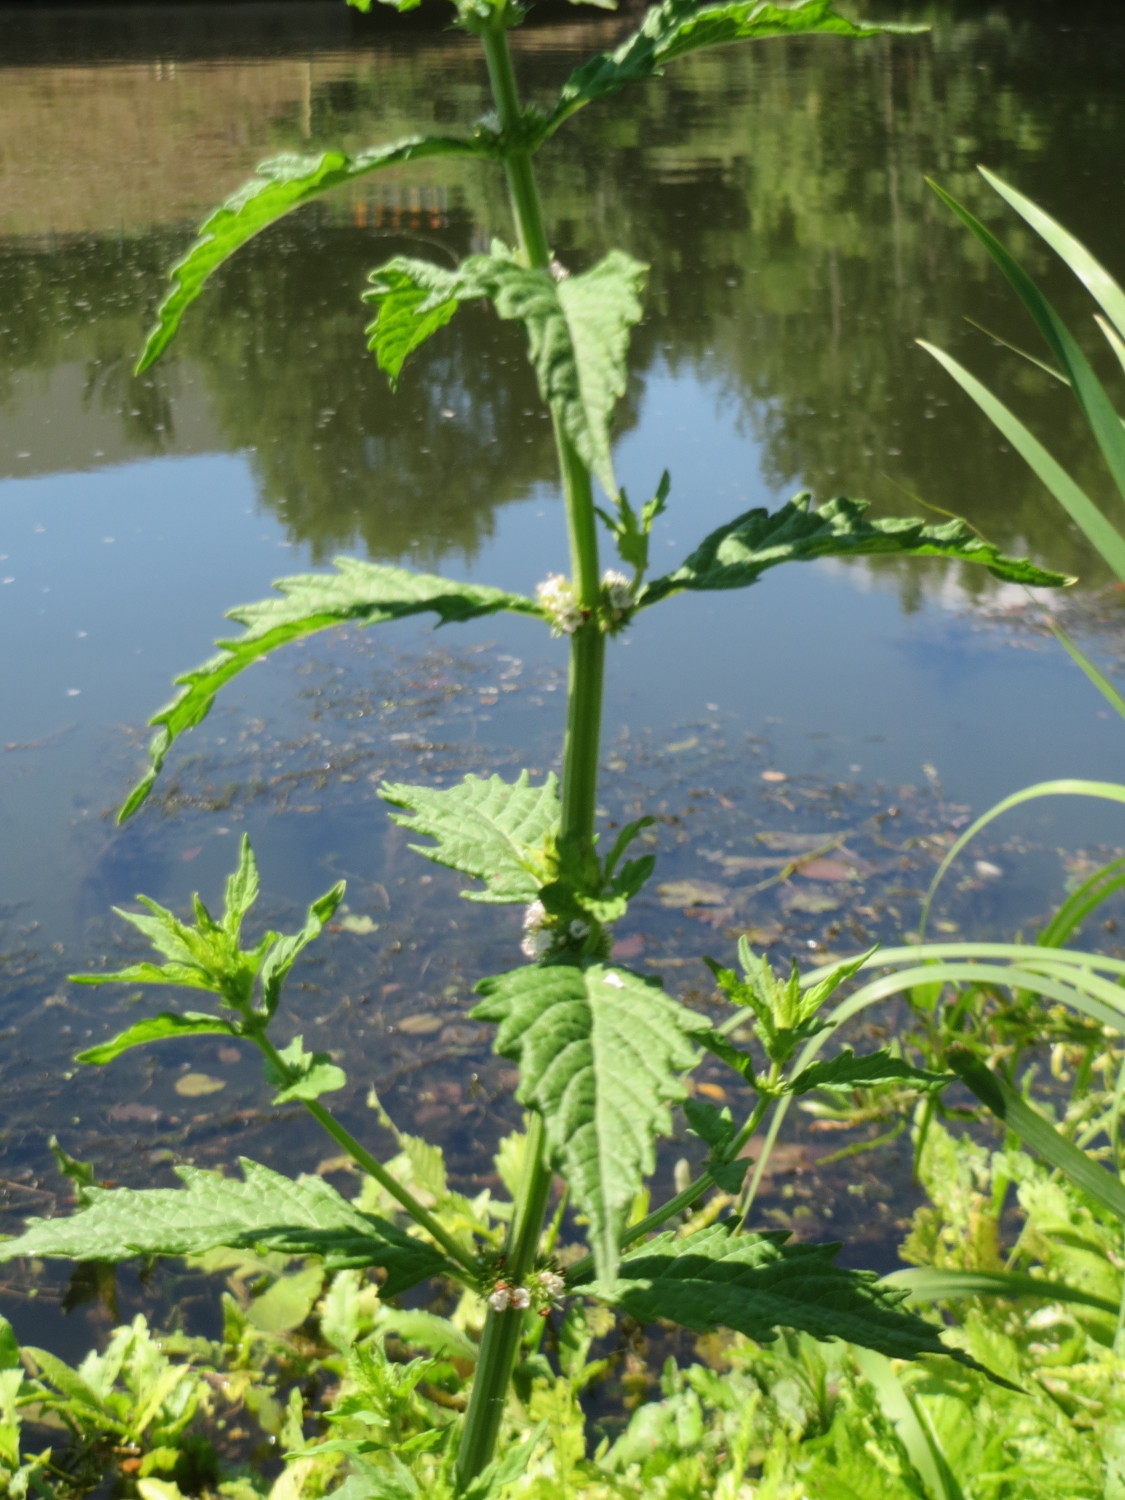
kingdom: Plantae
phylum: Tracheophyta
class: Magnoliopsida
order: Lamiales
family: Lamiaceae
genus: Lycopus
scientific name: Lycopus europaeus
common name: European bugleweed
